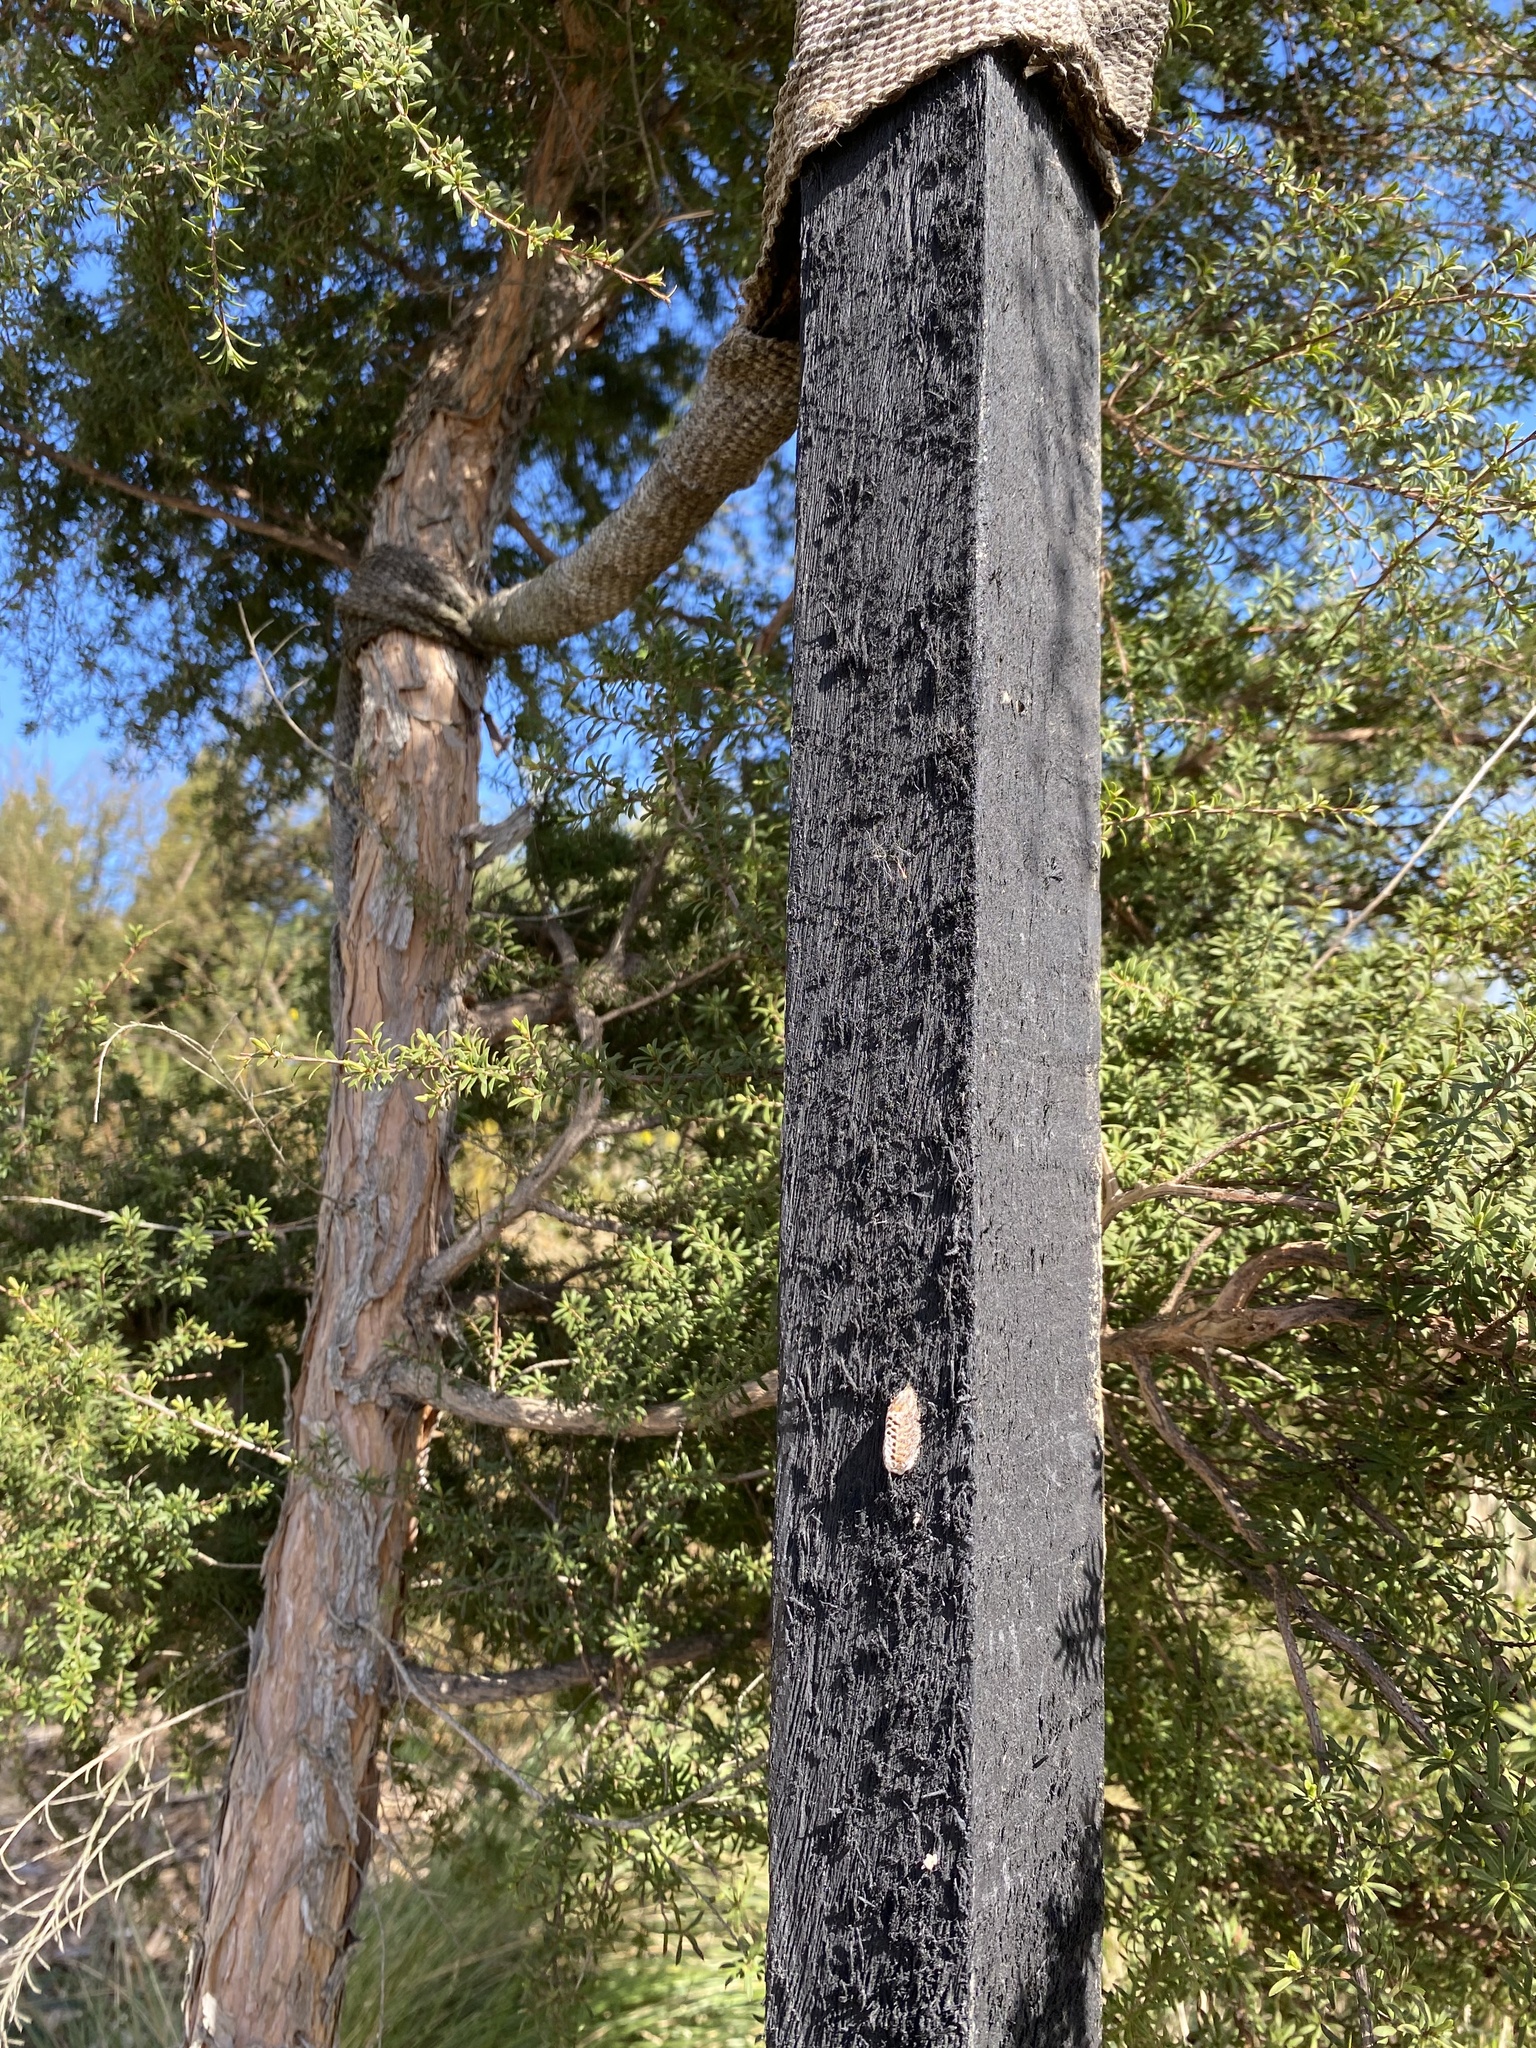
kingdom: Animalia
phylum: Arthropoda
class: Insecta
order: Mantodea
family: Mantidae
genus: Orthodera
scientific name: Orthodera novaezealandiae
